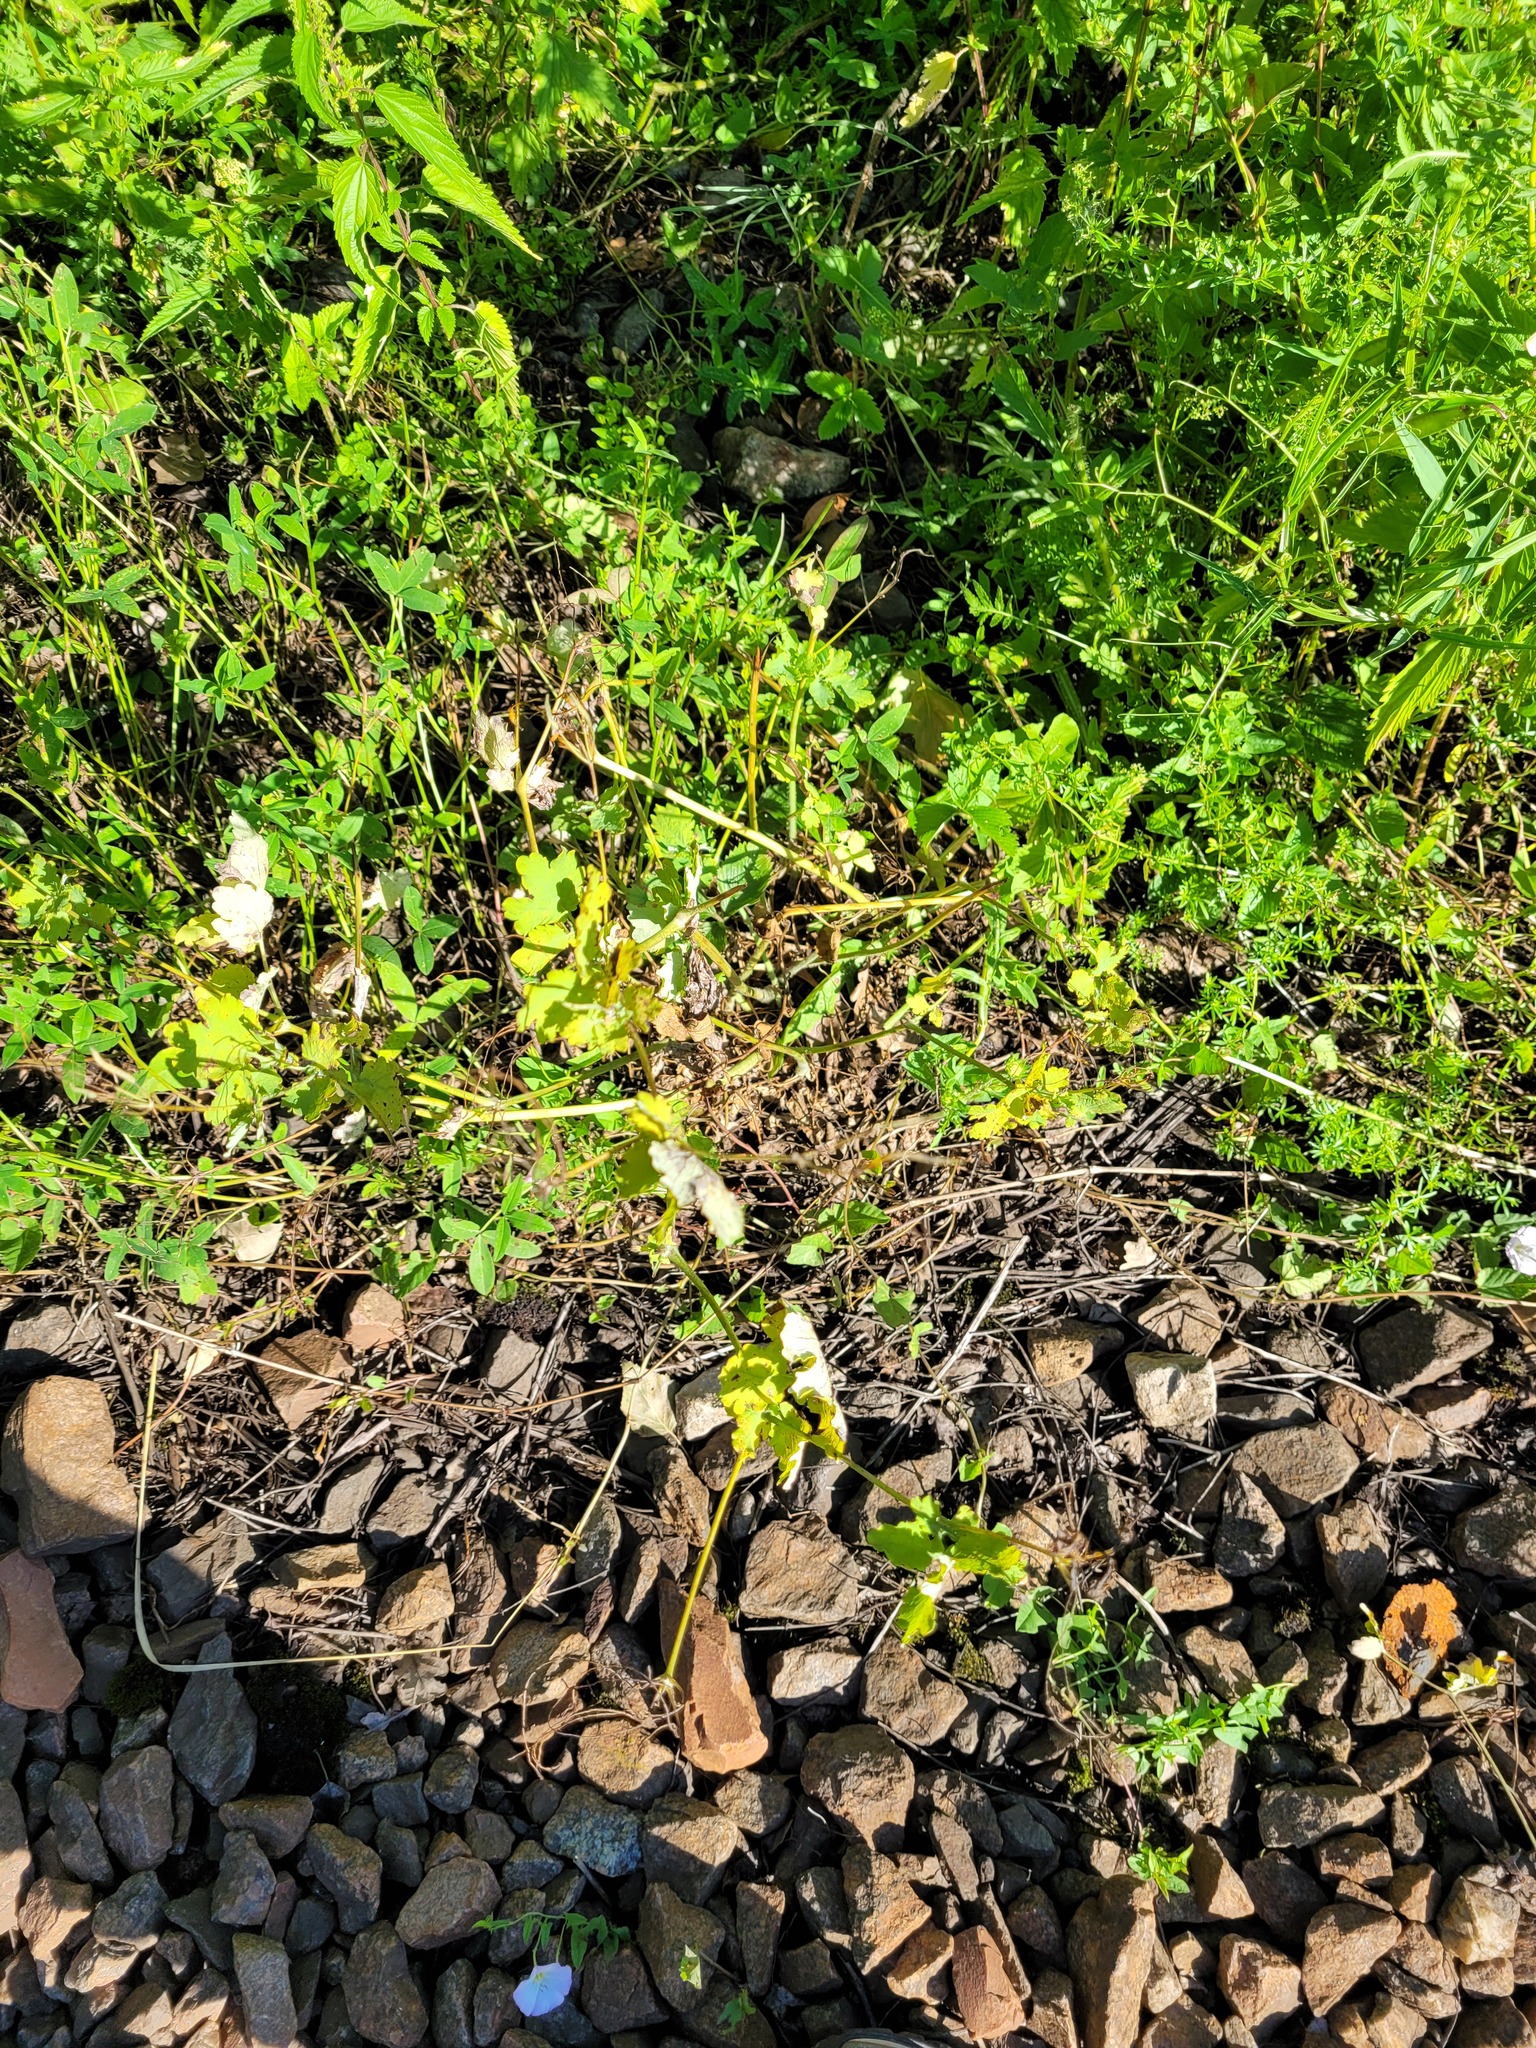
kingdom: Plantae
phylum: Tracheophyta
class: Magnoliopsida
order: Ranunculales
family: Papaveraceae
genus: Chelidonium
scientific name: Chelidonium majus
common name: Greater celandine
